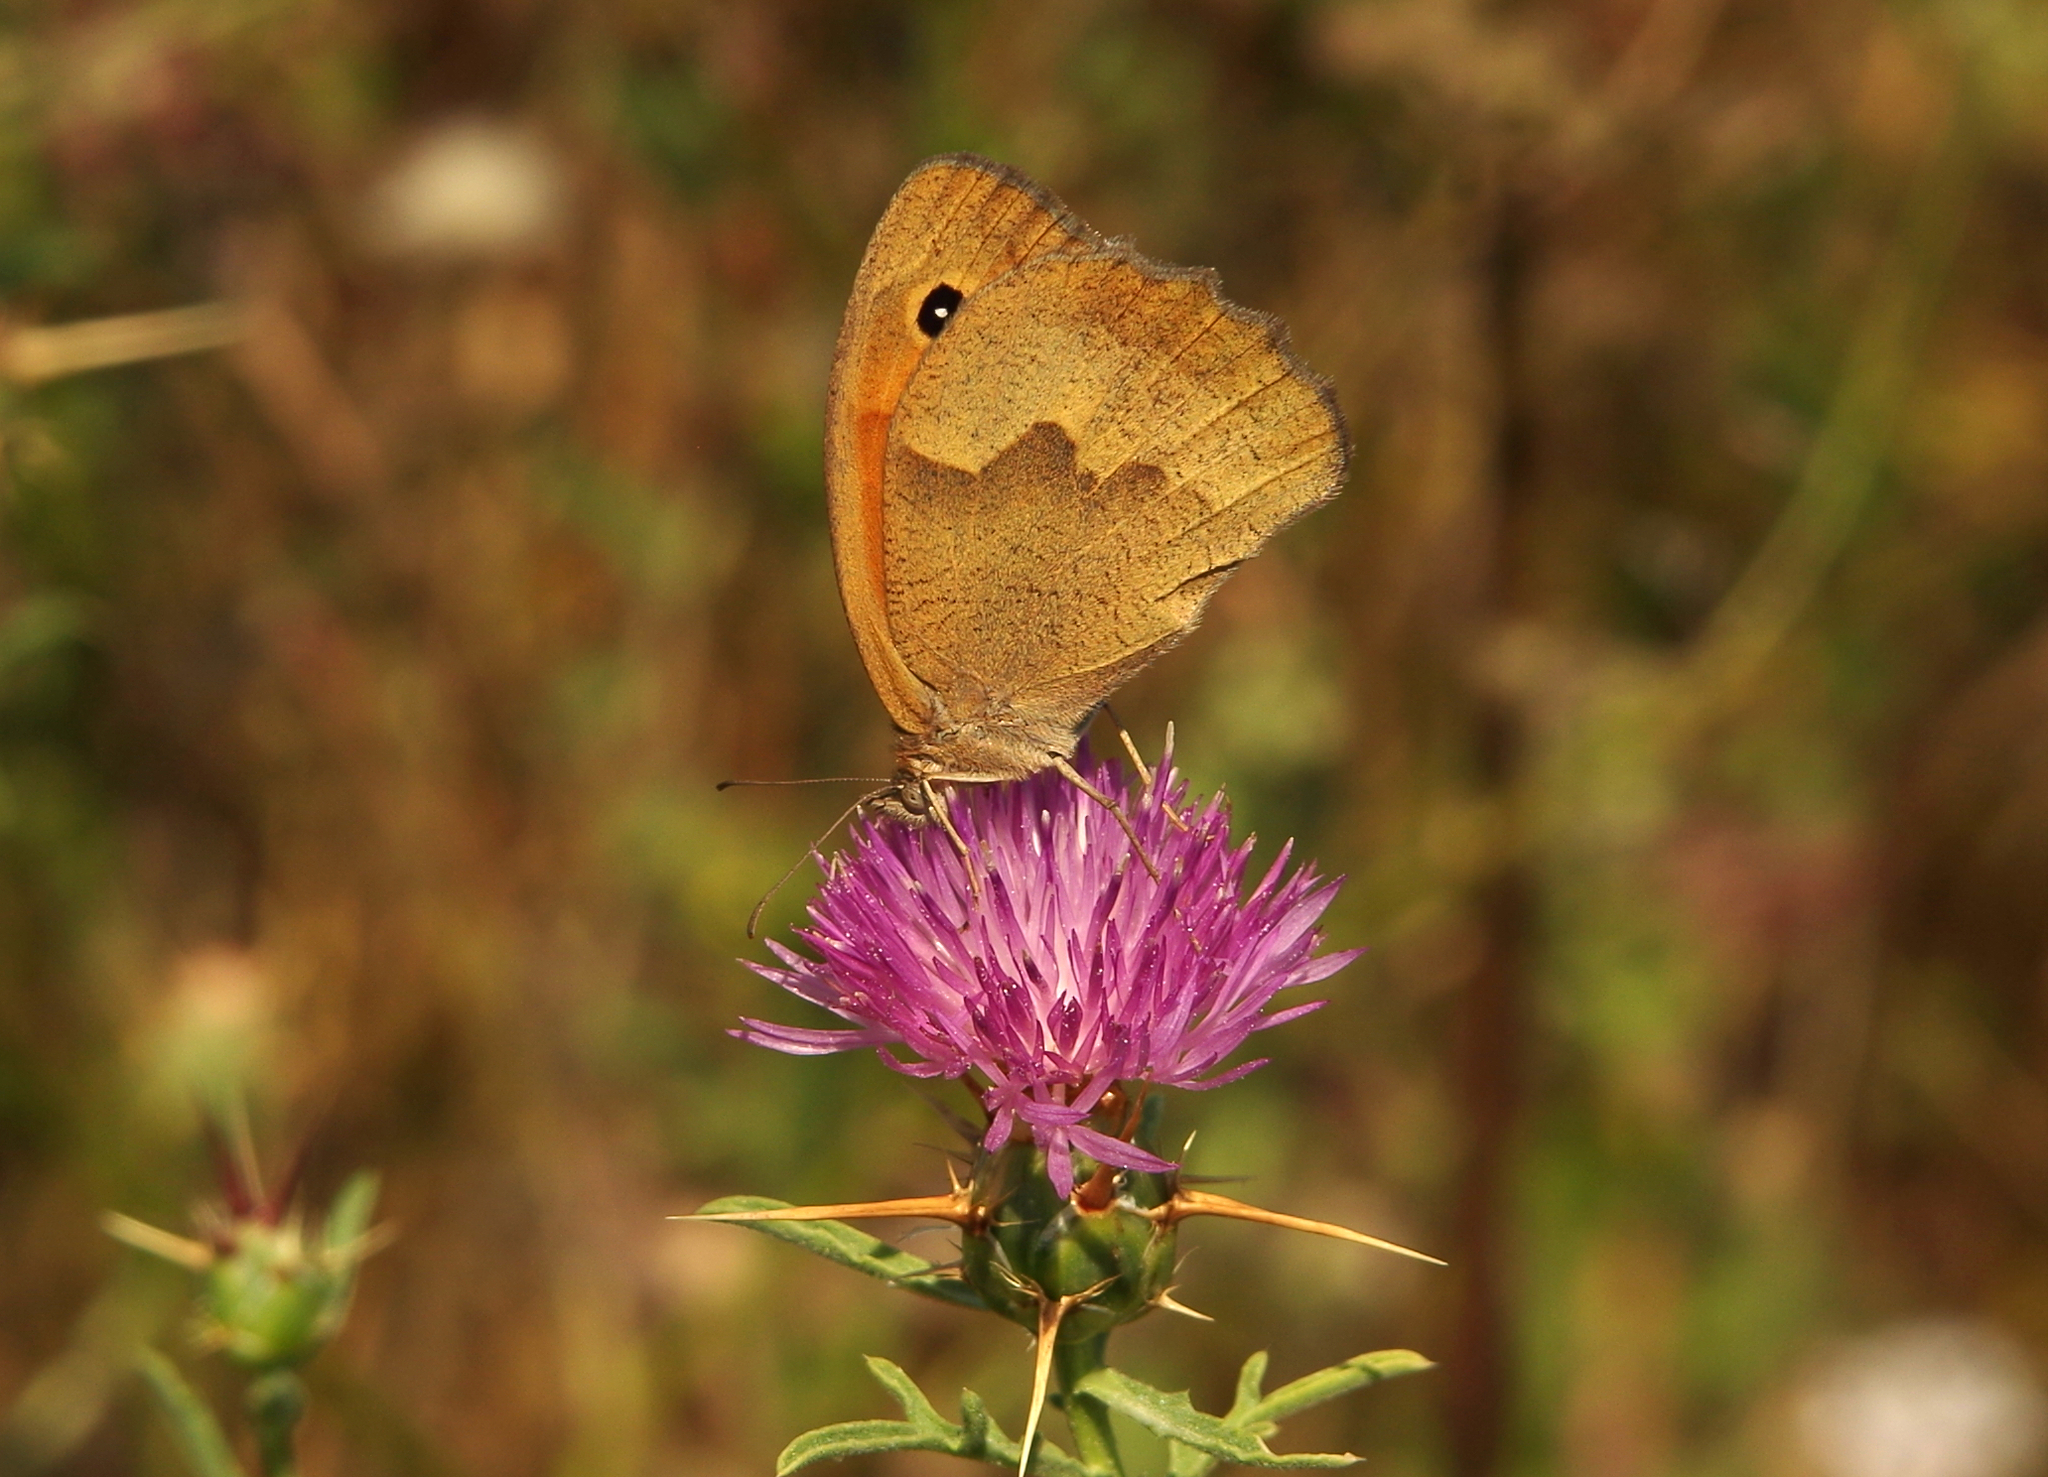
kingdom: Animalia
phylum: Arthropoda
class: Insecta
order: Lepidoptera
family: Nymphalidae
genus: Maniola
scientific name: Maniola jurtina
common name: Meadow brown
